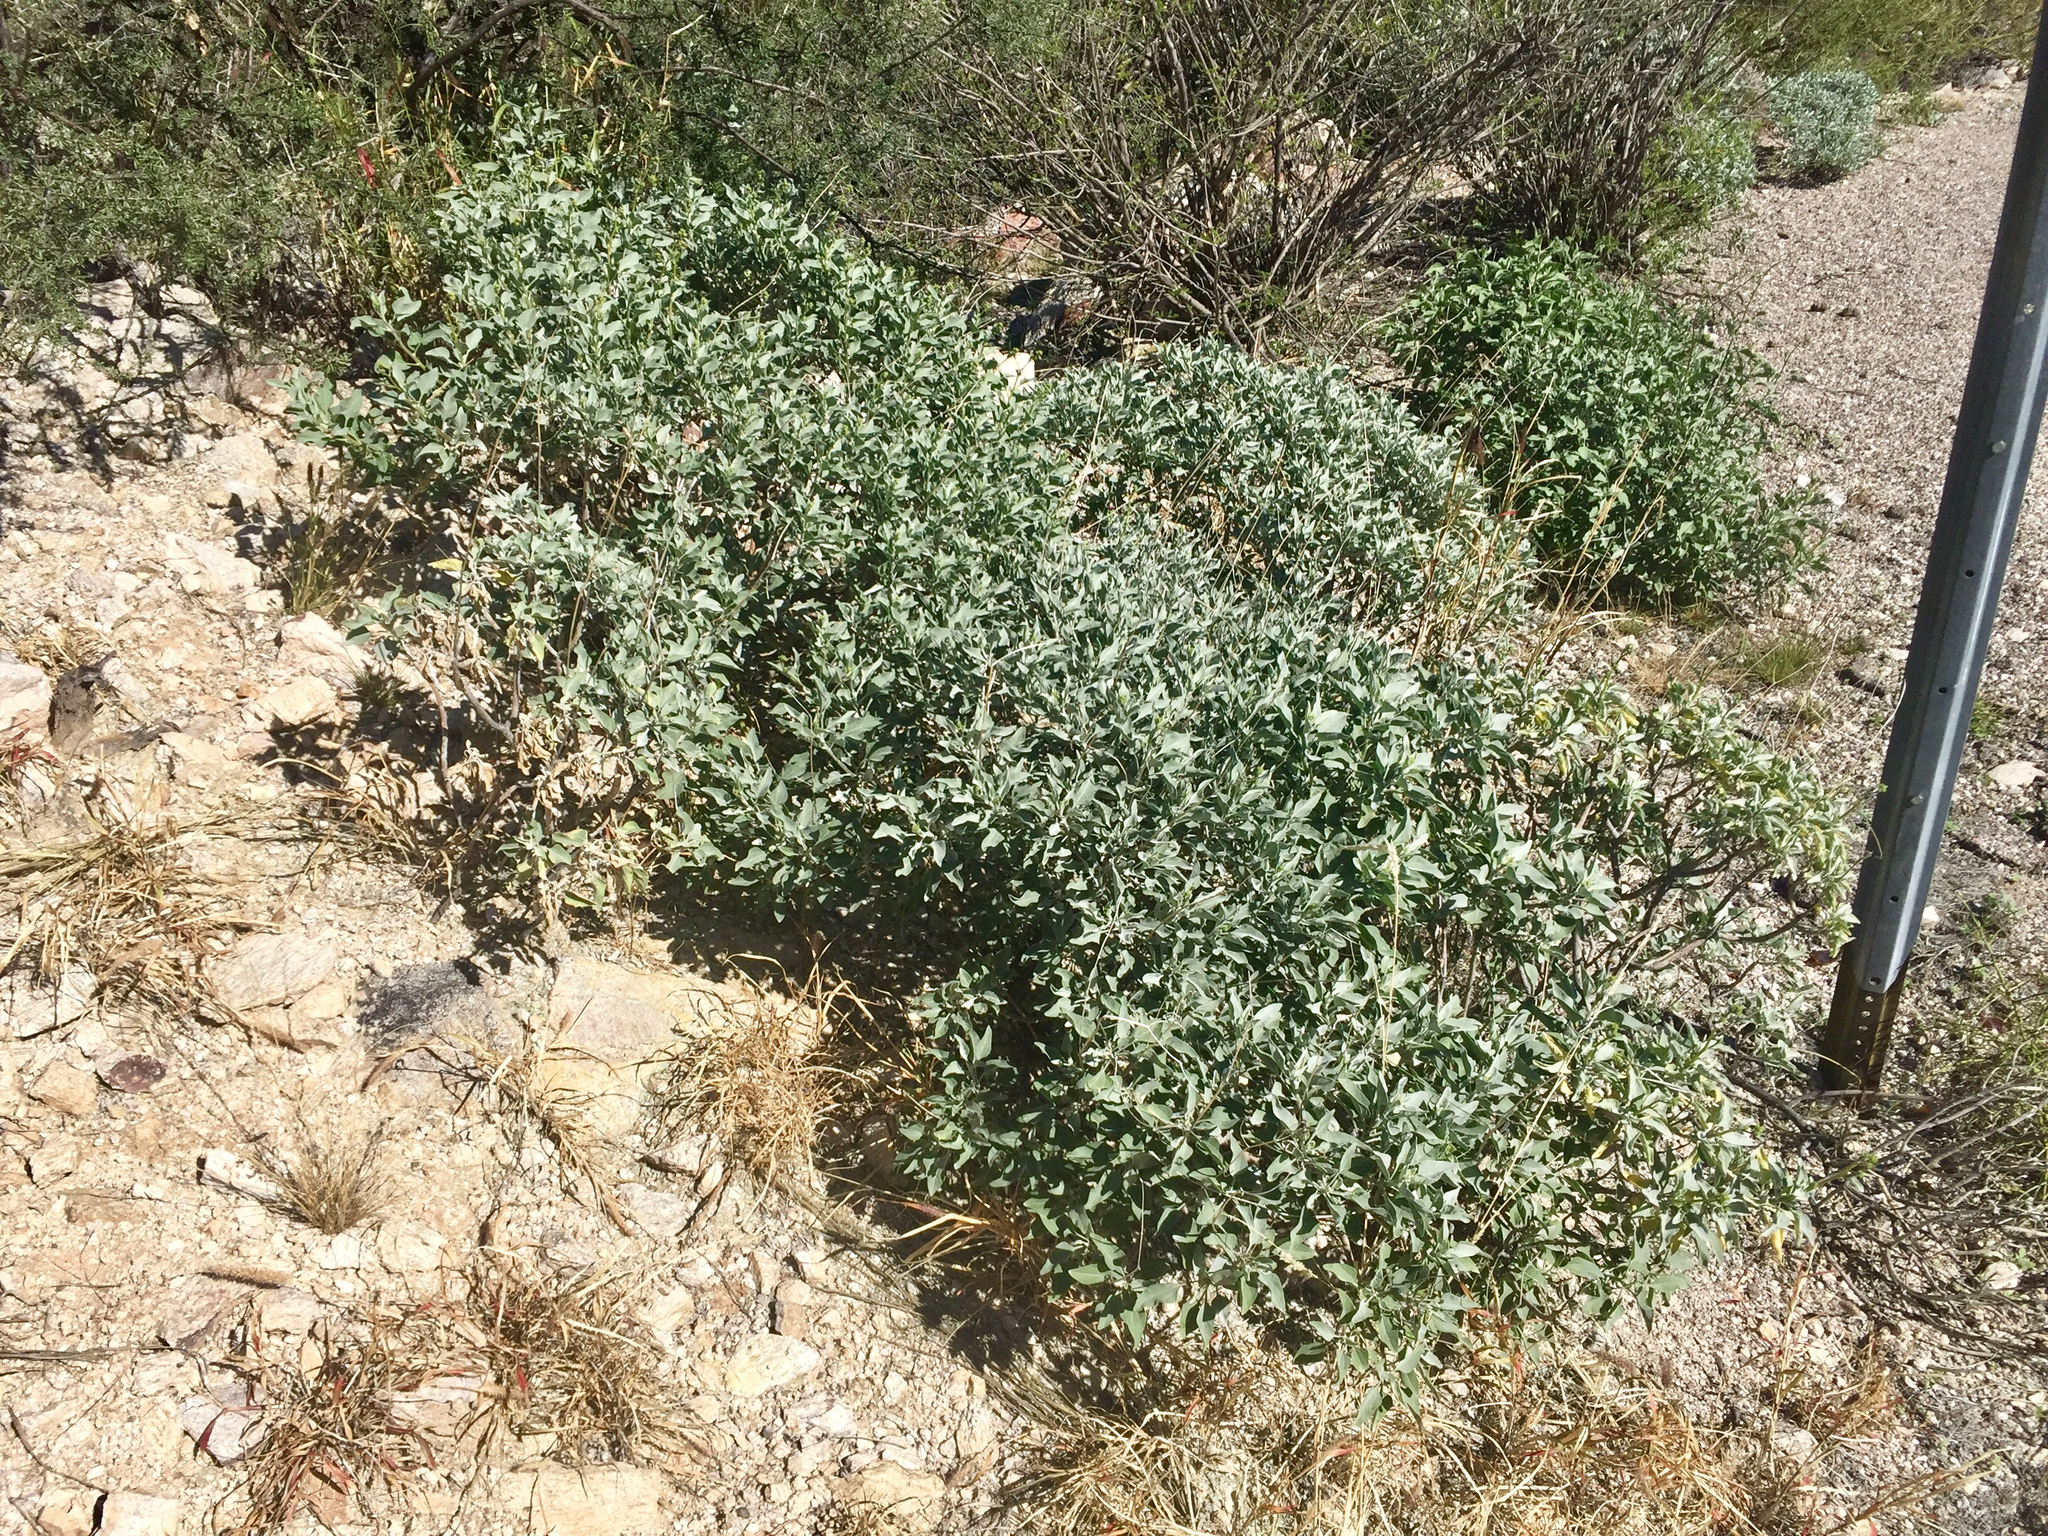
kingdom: Plantae
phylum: Tracheophyta
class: Magnoliopsida
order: Asterales
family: Asteraceae
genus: Encelia
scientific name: Encelia farinosa
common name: Brittlebush
